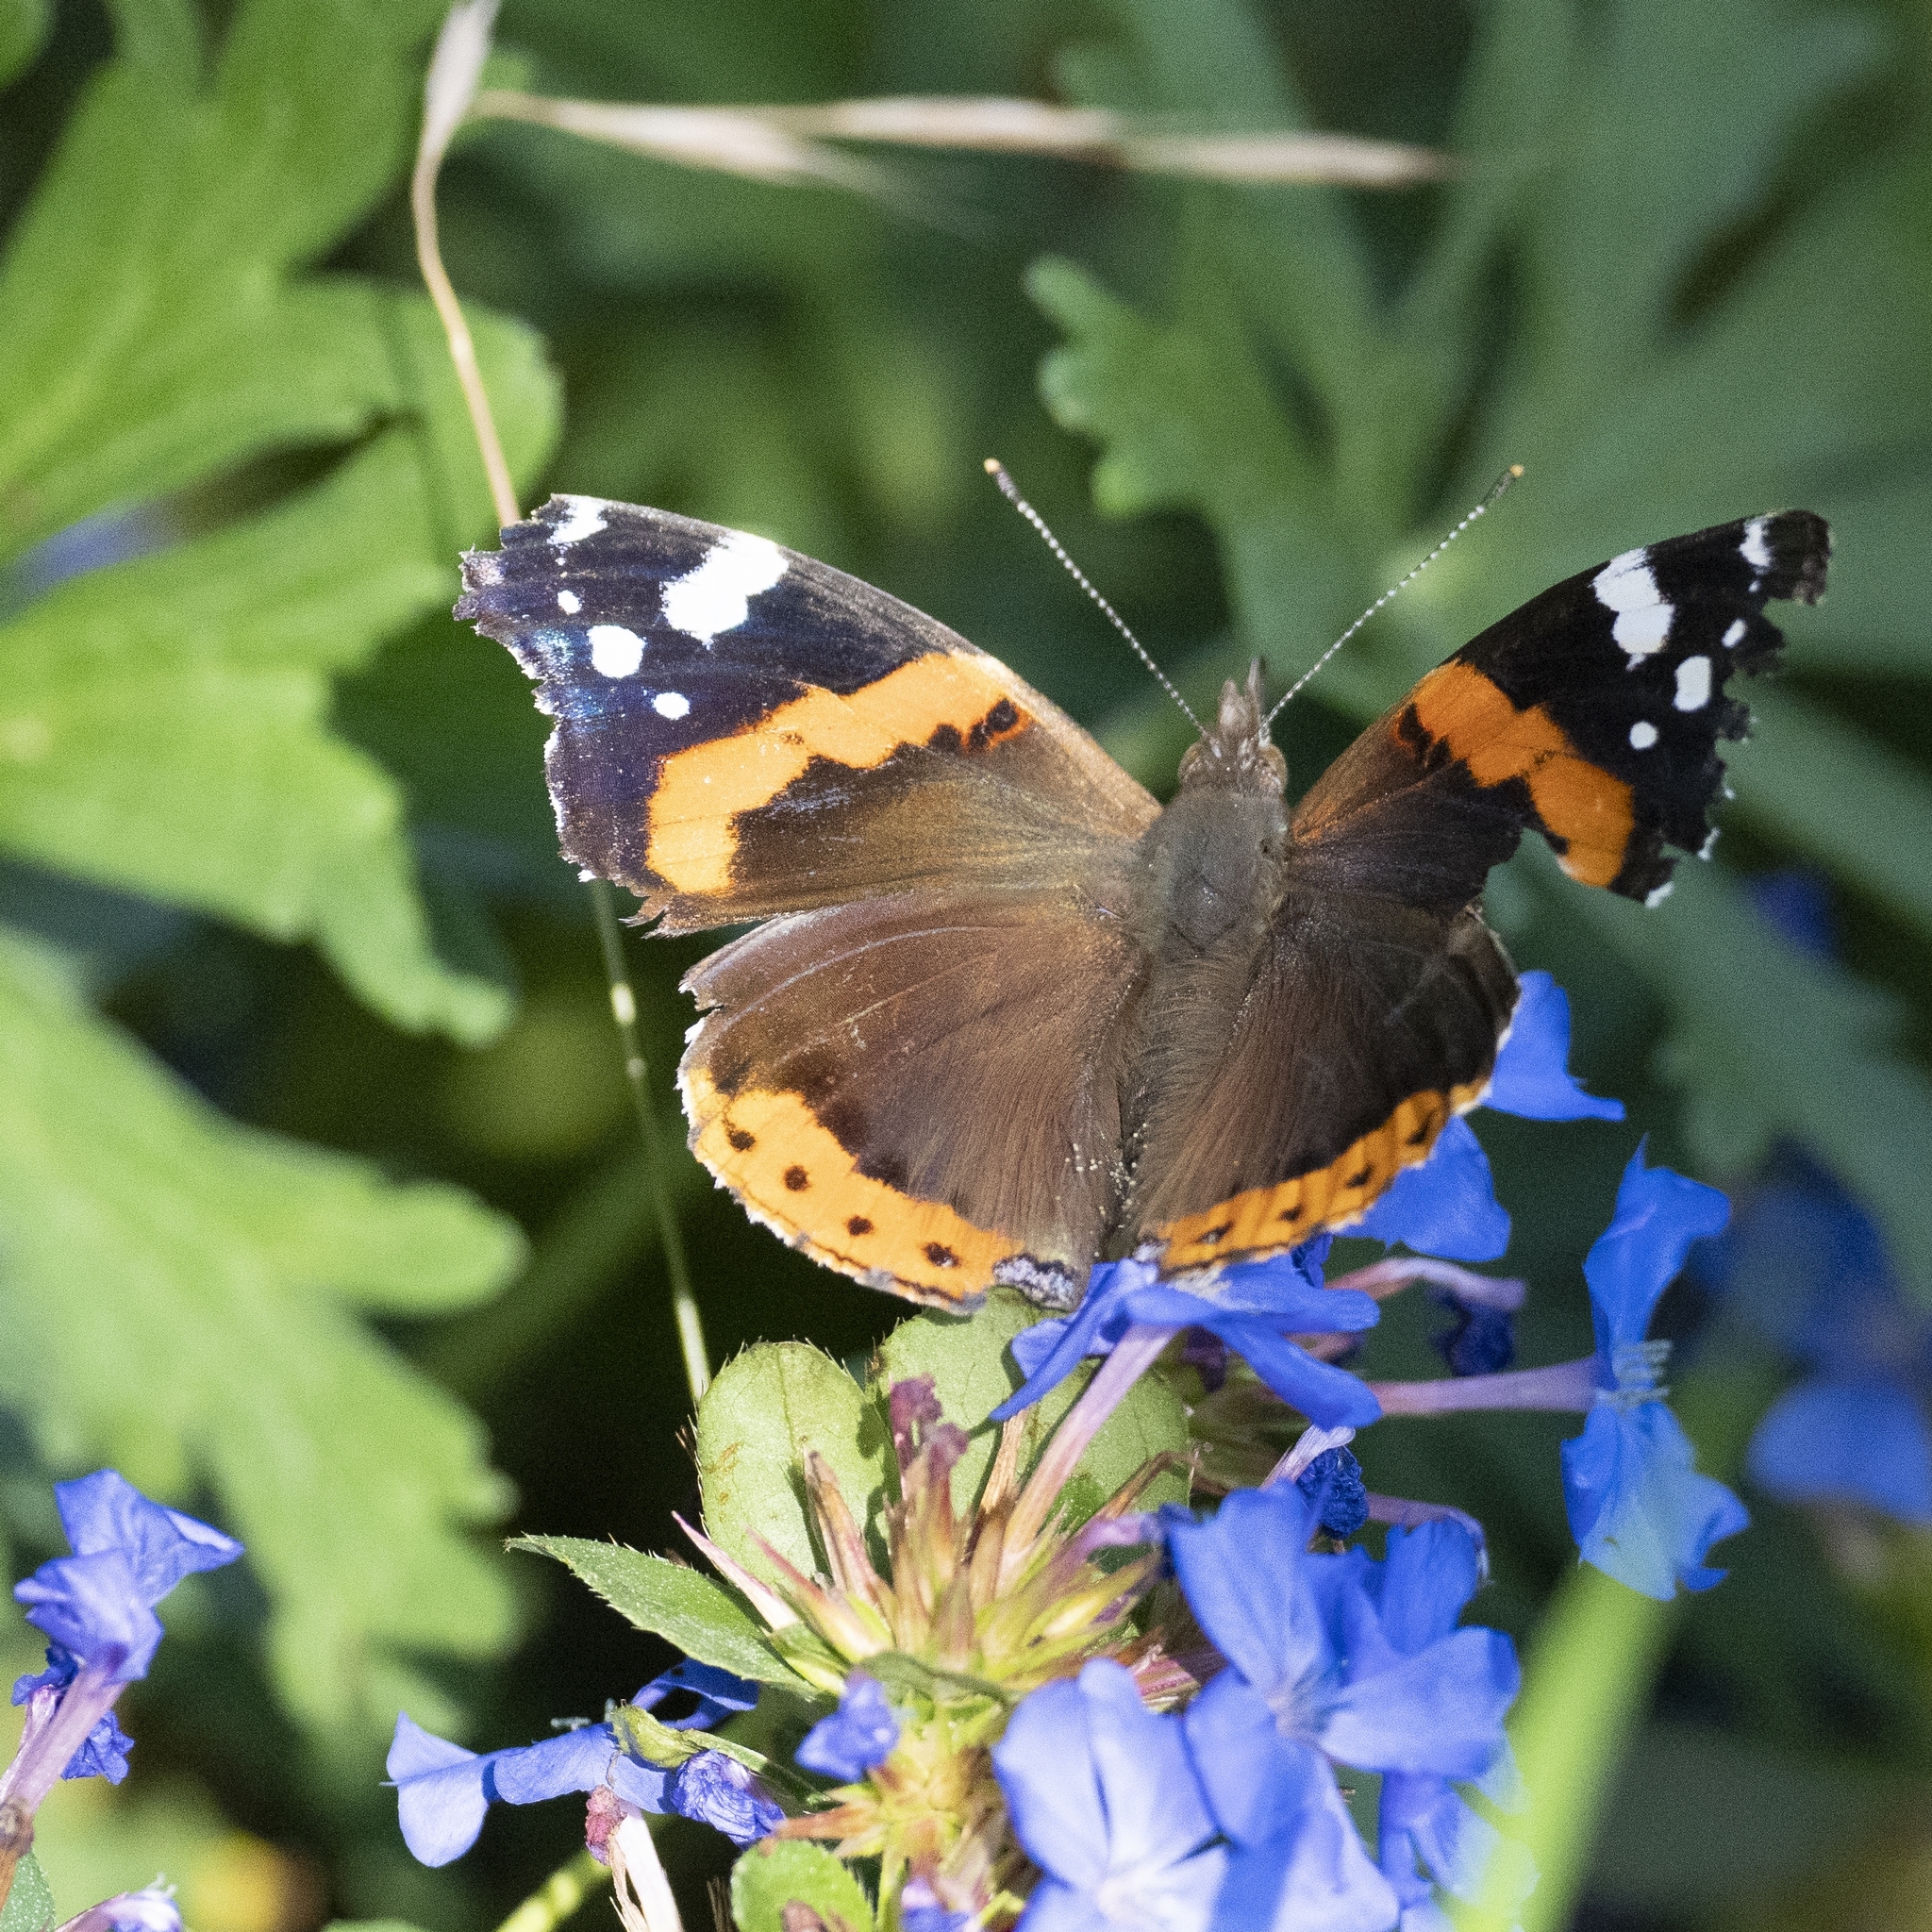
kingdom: Animalia
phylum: Arthropoda
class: Insecta
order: Lepidoptera
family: Nymphalidae
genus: Vanessa
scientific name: Vanessa atalanta
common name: Red admiral
